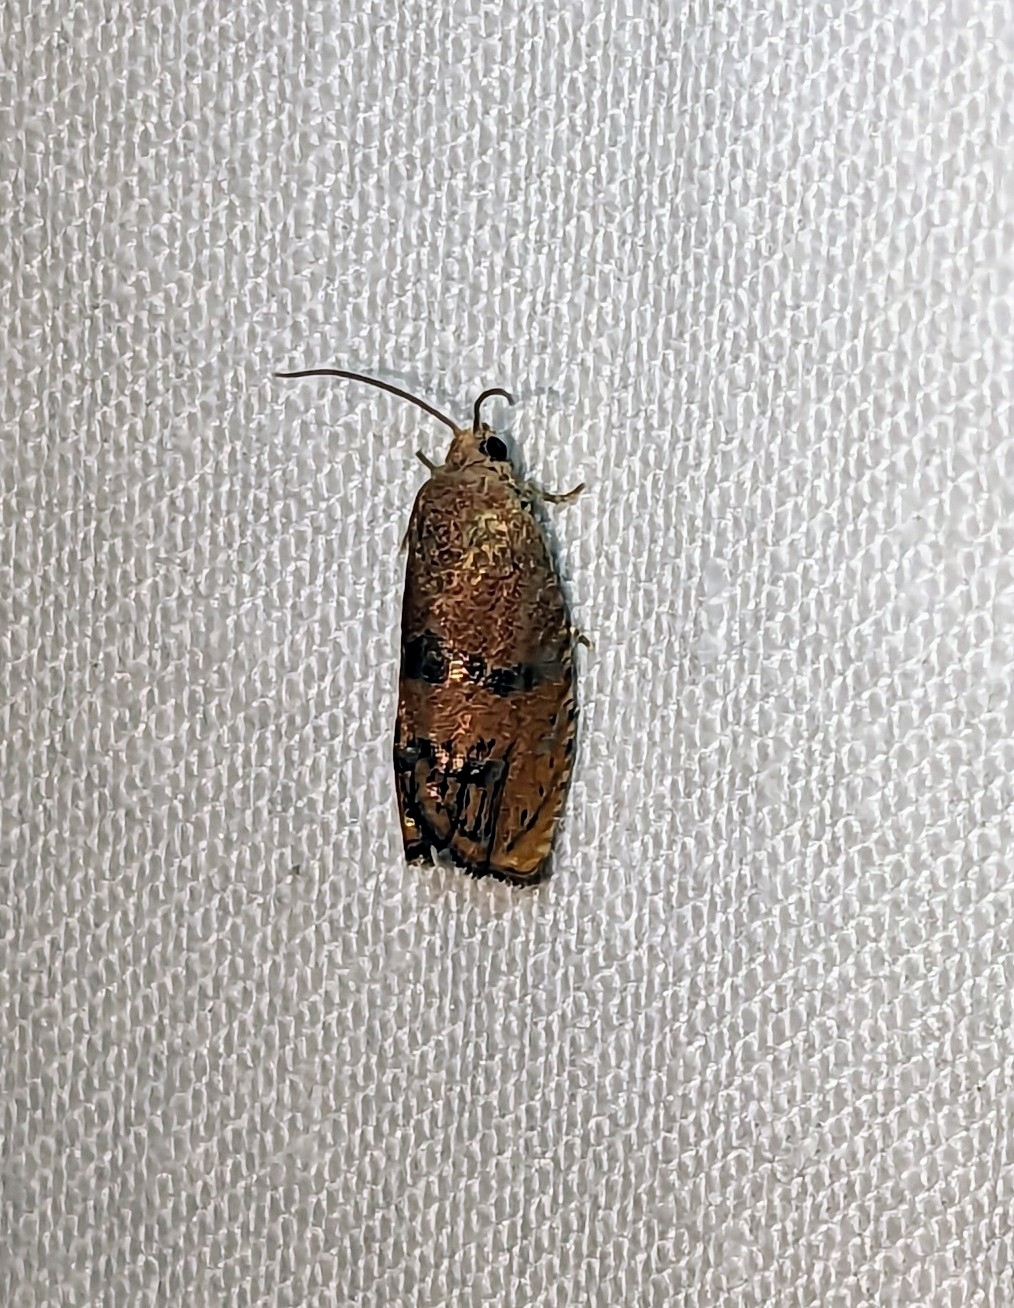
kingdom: Animalia
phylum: Arthropoda
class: Insecta
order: Lepidoptera
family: Tortricidae
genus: Cydia
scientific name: Cydia latiferreana
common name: Filbertworm moth
